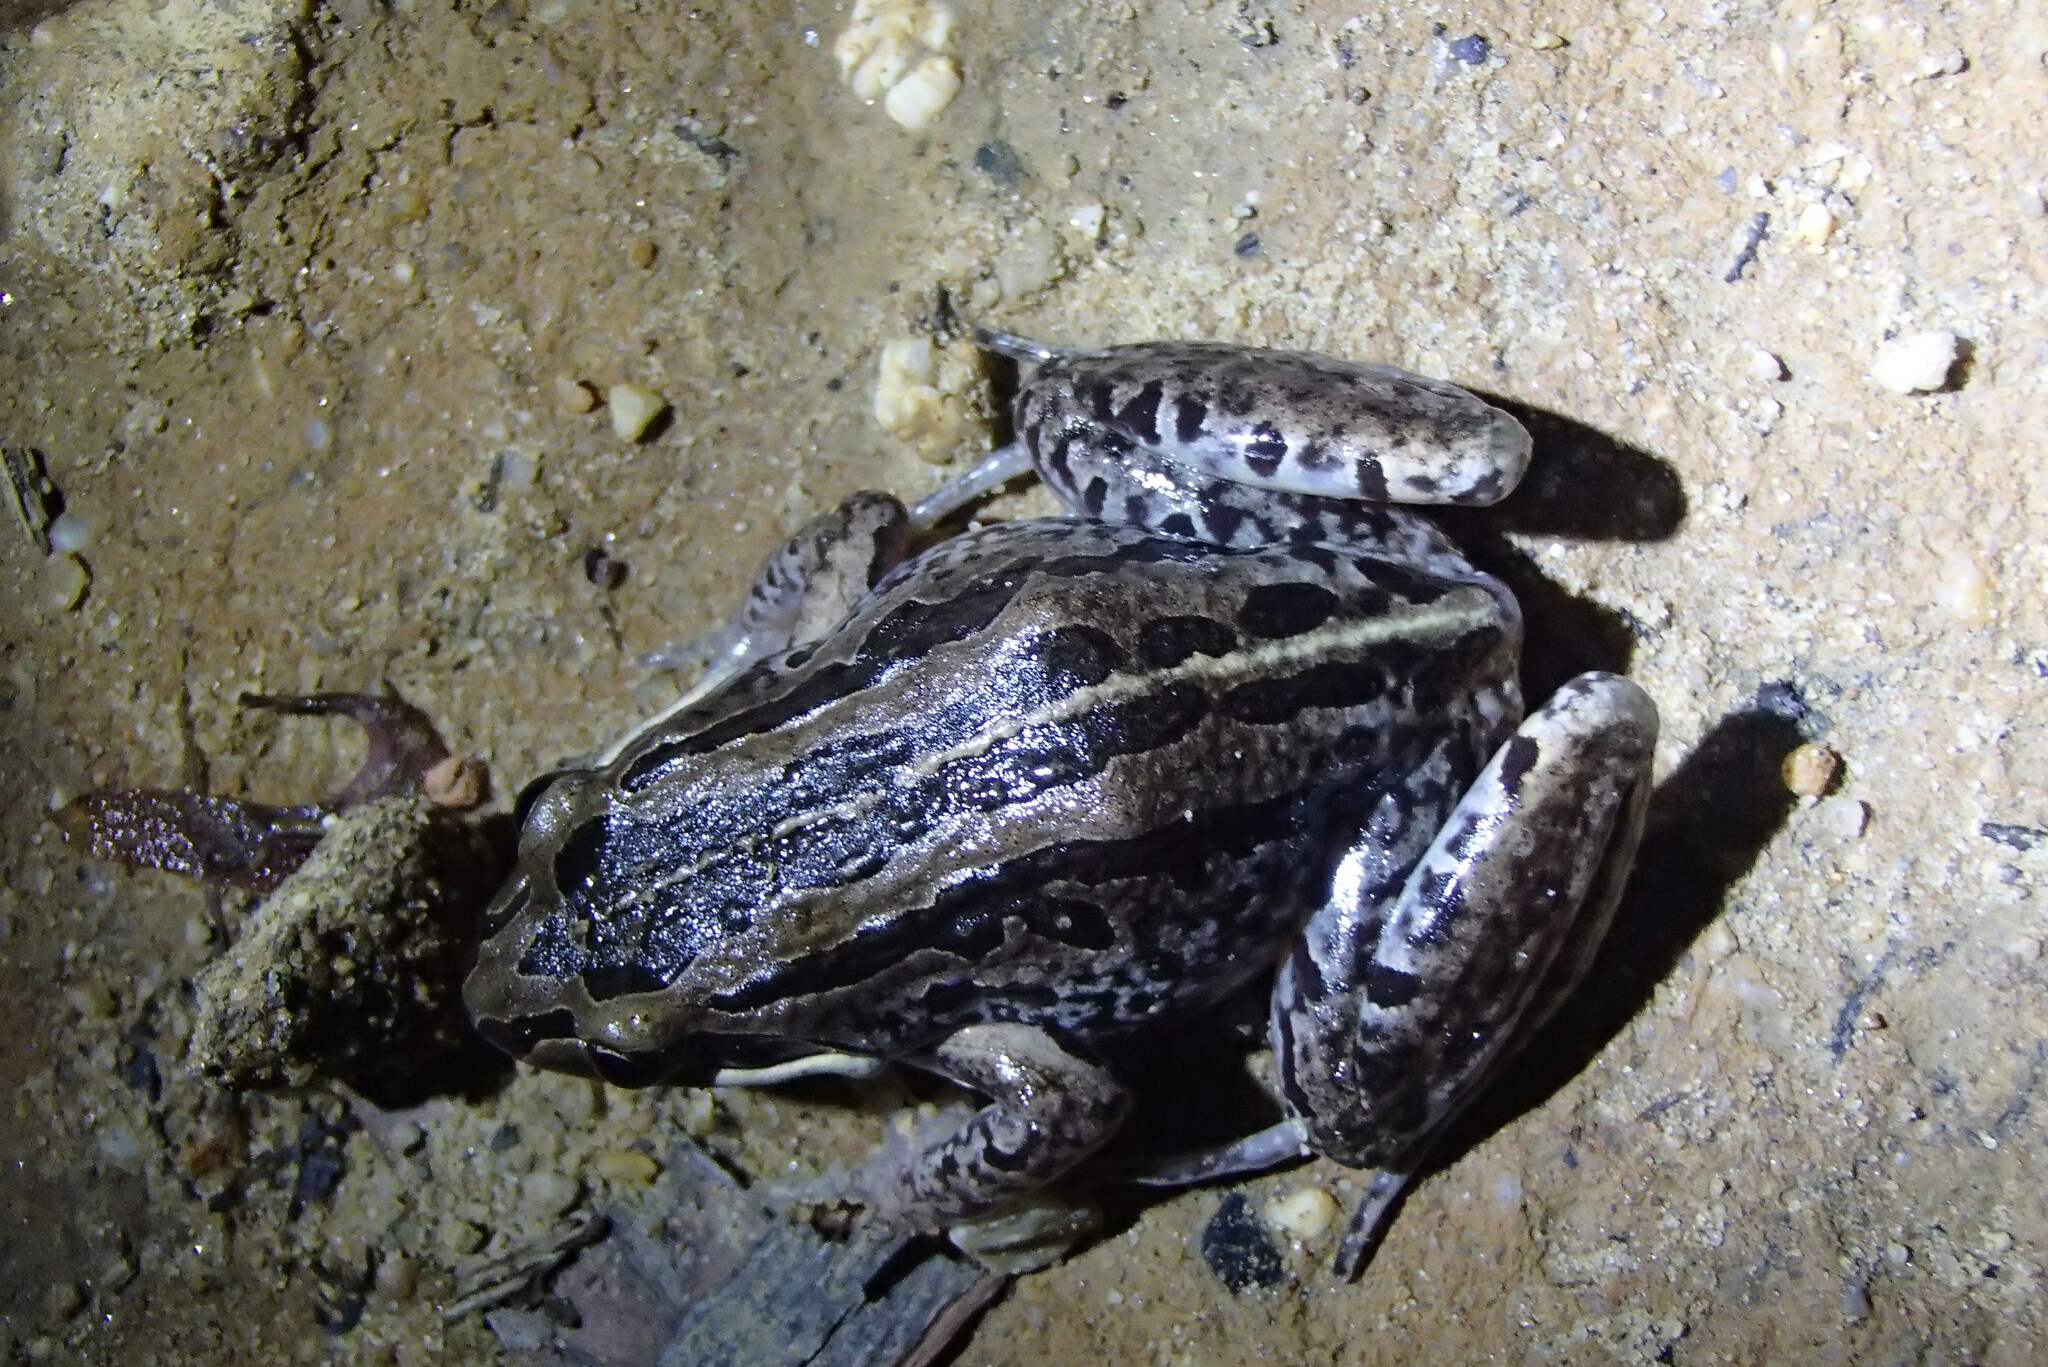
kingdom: Animalia
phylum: Chordata
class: Amphibia
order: Anura
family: Limnodynastidae
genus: Limnodynastes
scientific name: Limnodynastes peronii
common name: Brown frog
